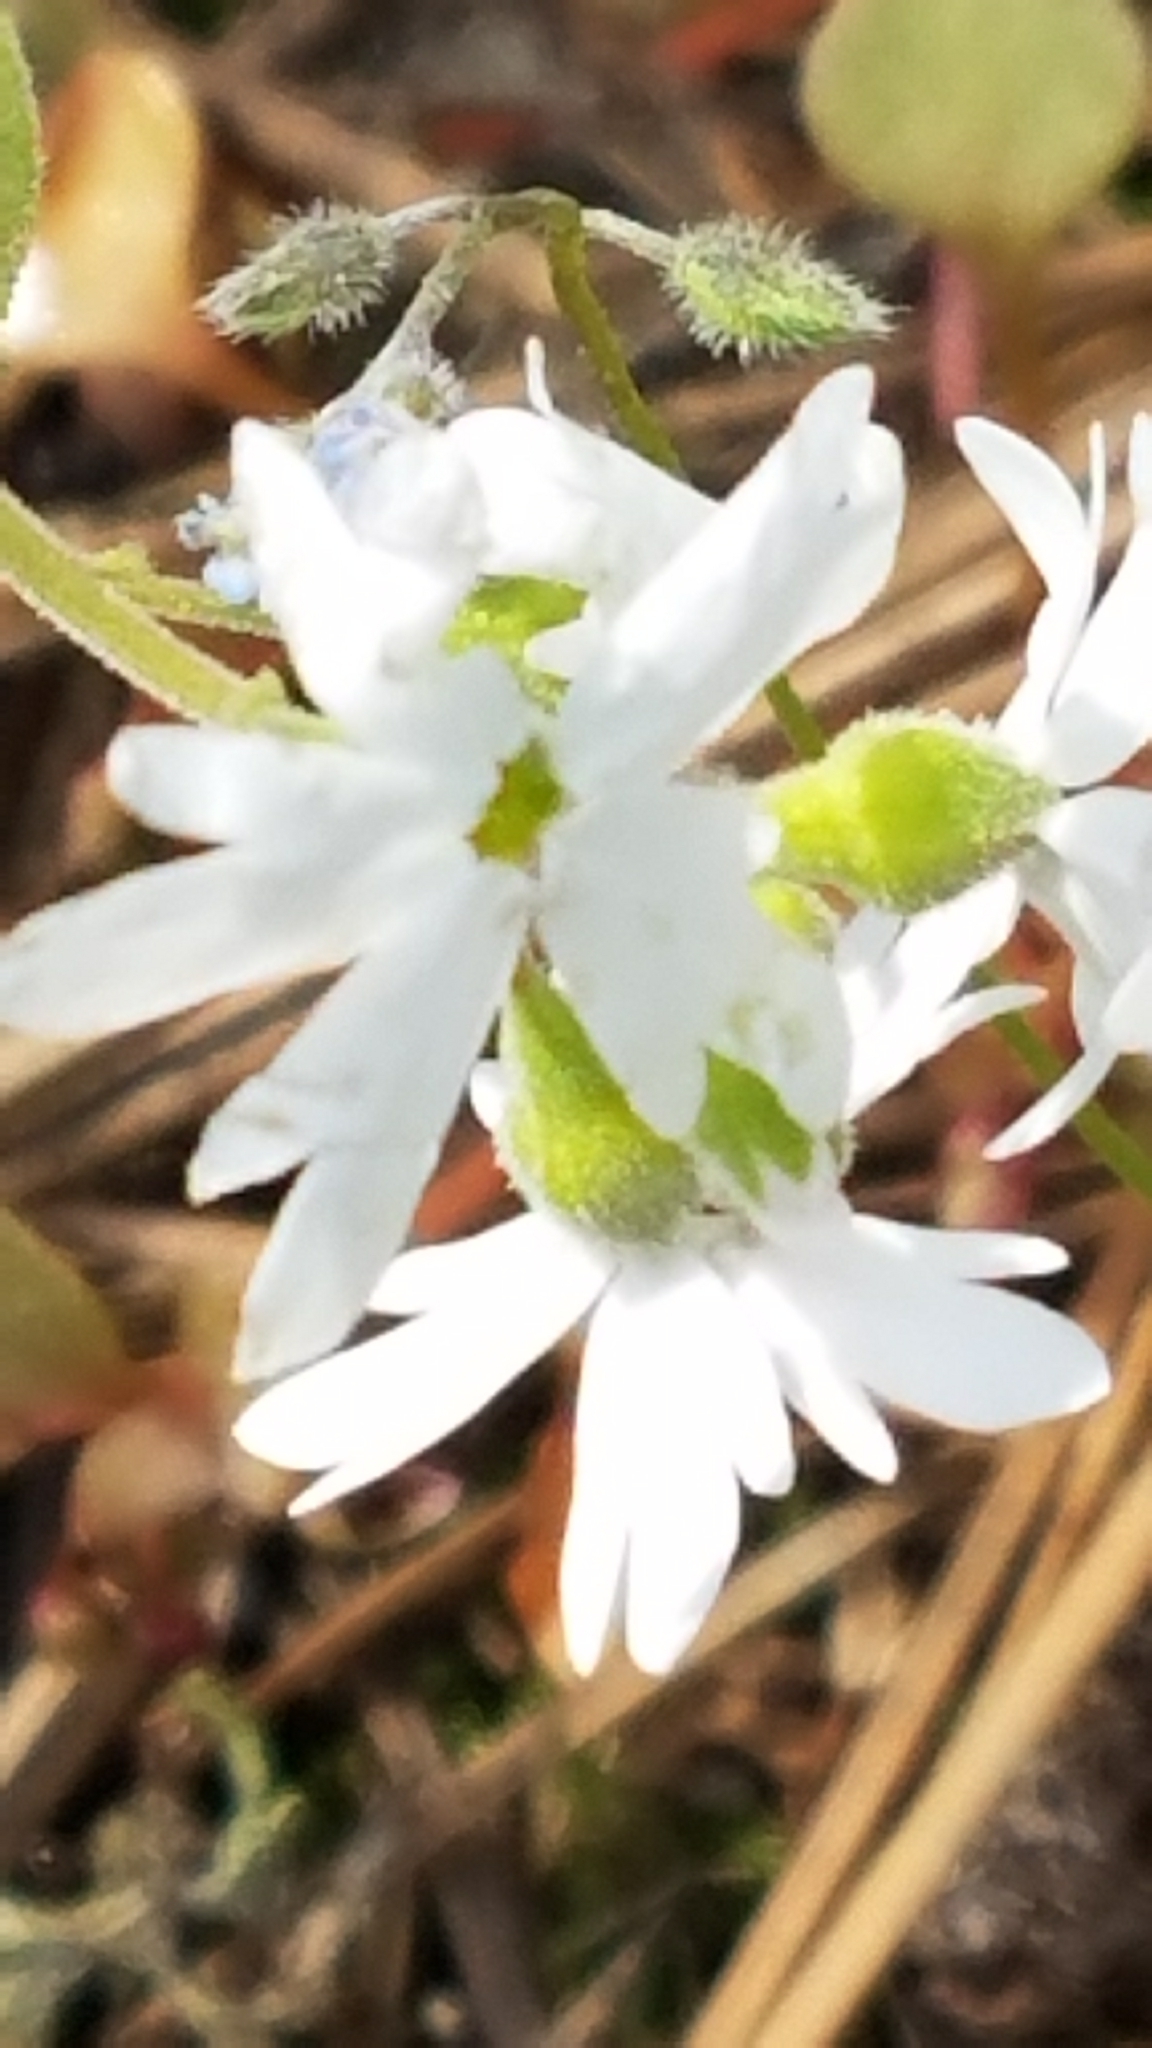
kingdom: Plantae
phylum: Tracheophyta
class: Magnoliopsida
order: Saxifragales
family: Saxifragaceae
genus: Lithophragma
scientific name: Lithophragma parviflorum
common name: Small-flowered fringe-cup
